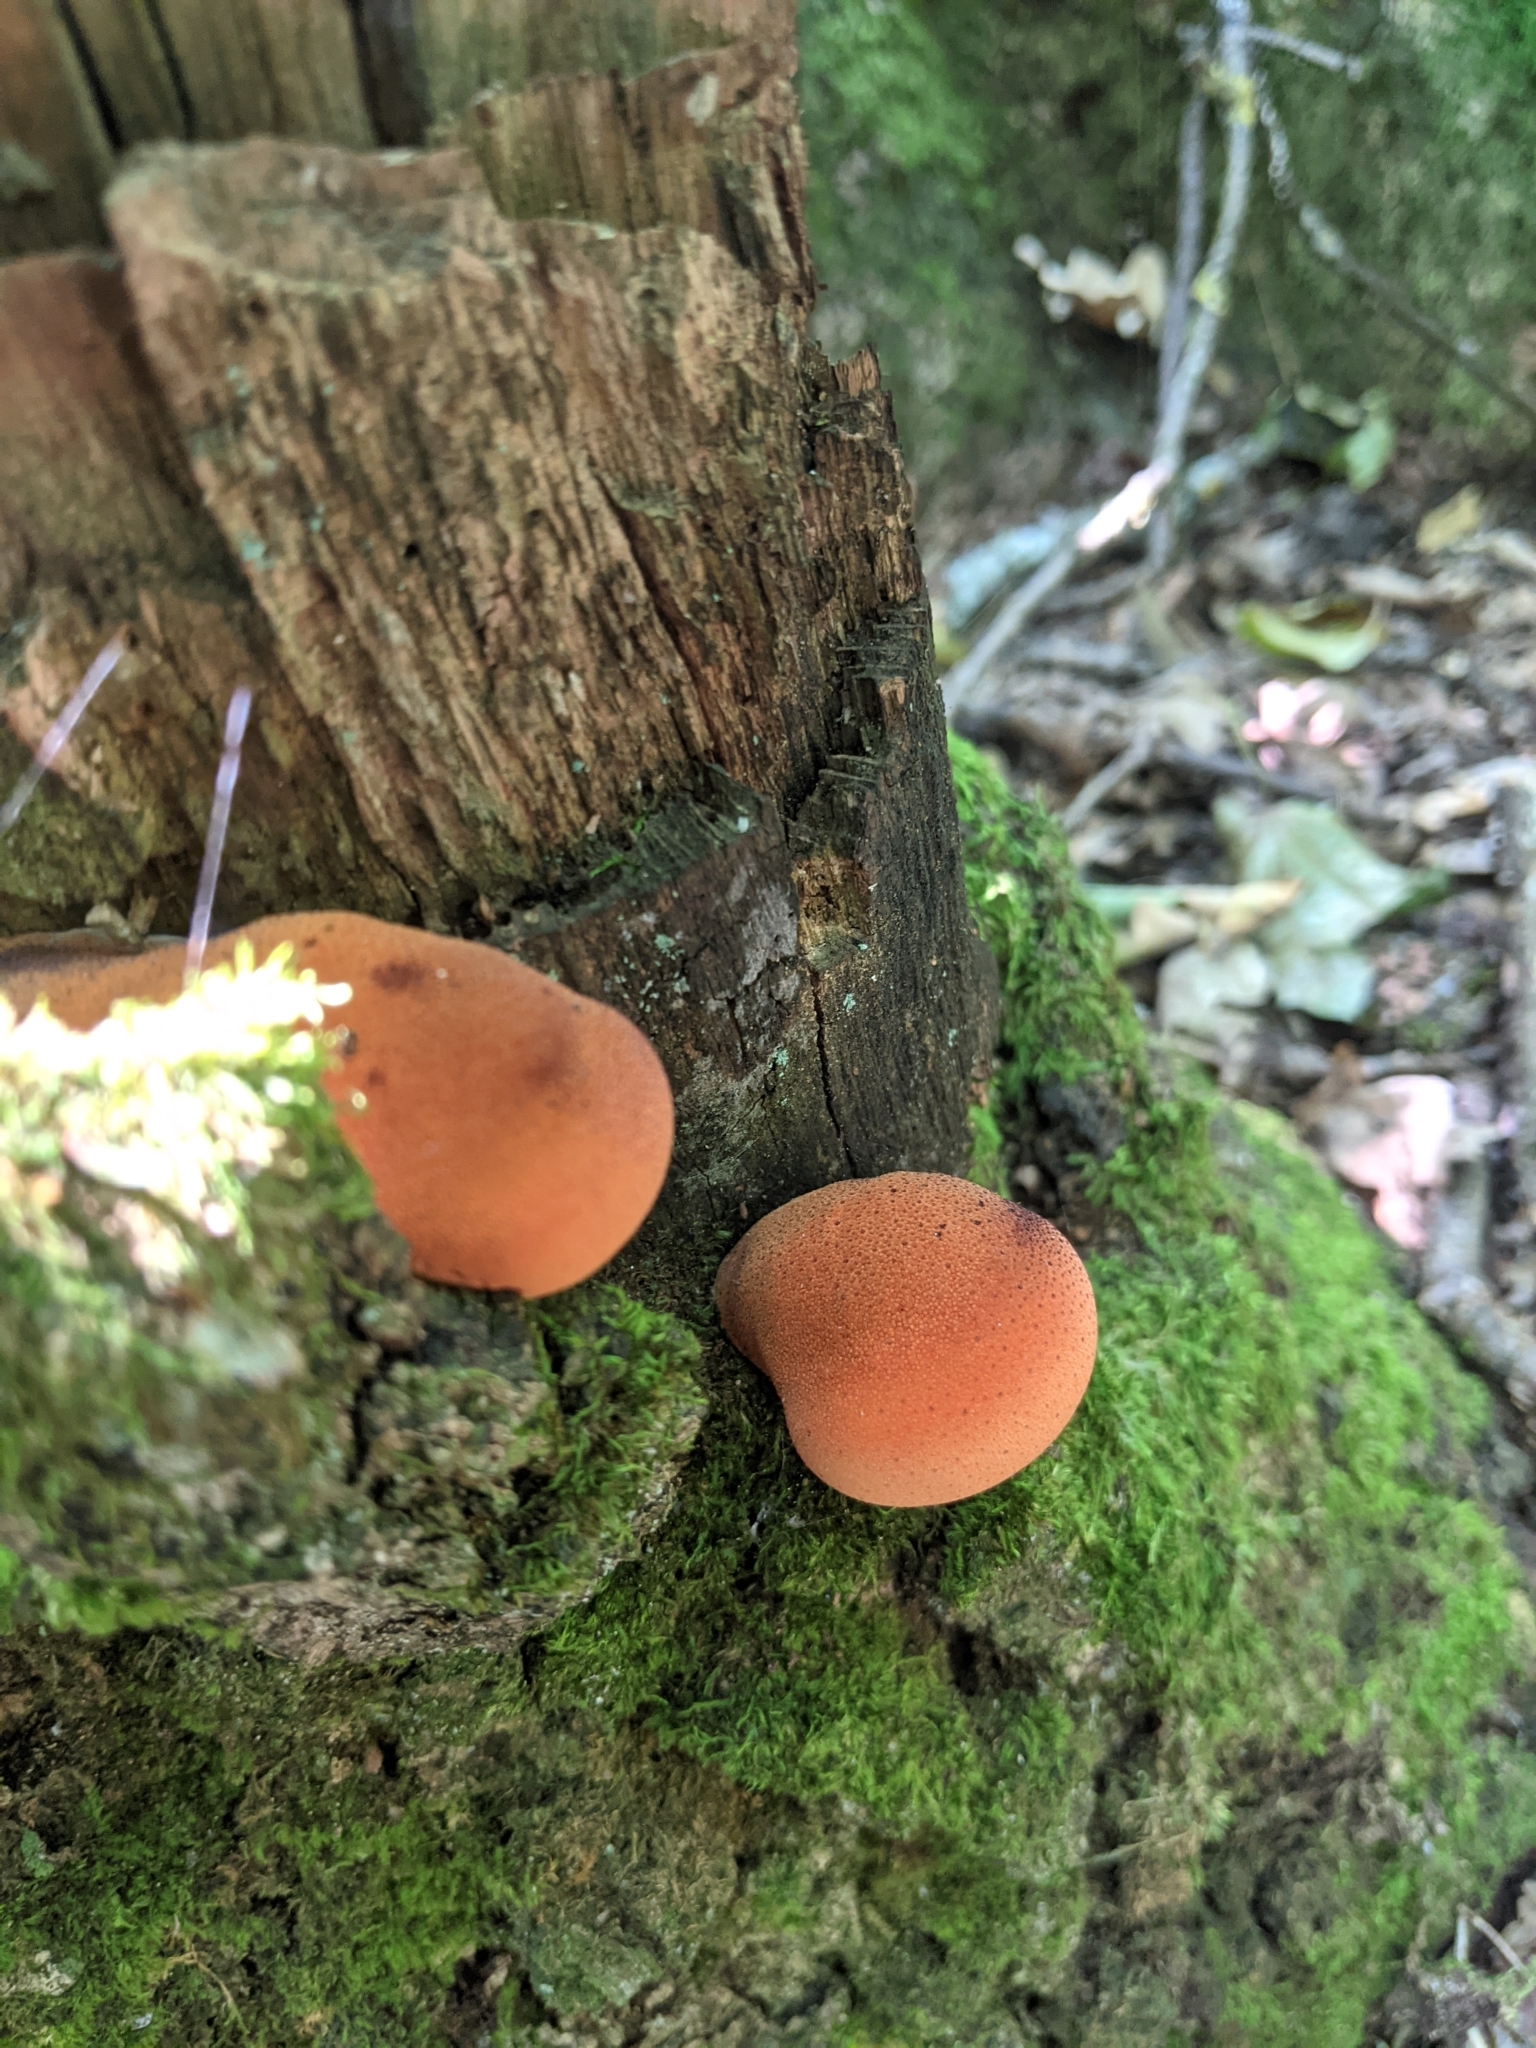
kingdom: Fungi
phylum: Basidiomycota
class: Agaricomycetes
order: Agaricales
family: Fistulinaceae
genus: Fistulina
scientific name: Fistulina hepatica
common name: Beef-steak fungus
